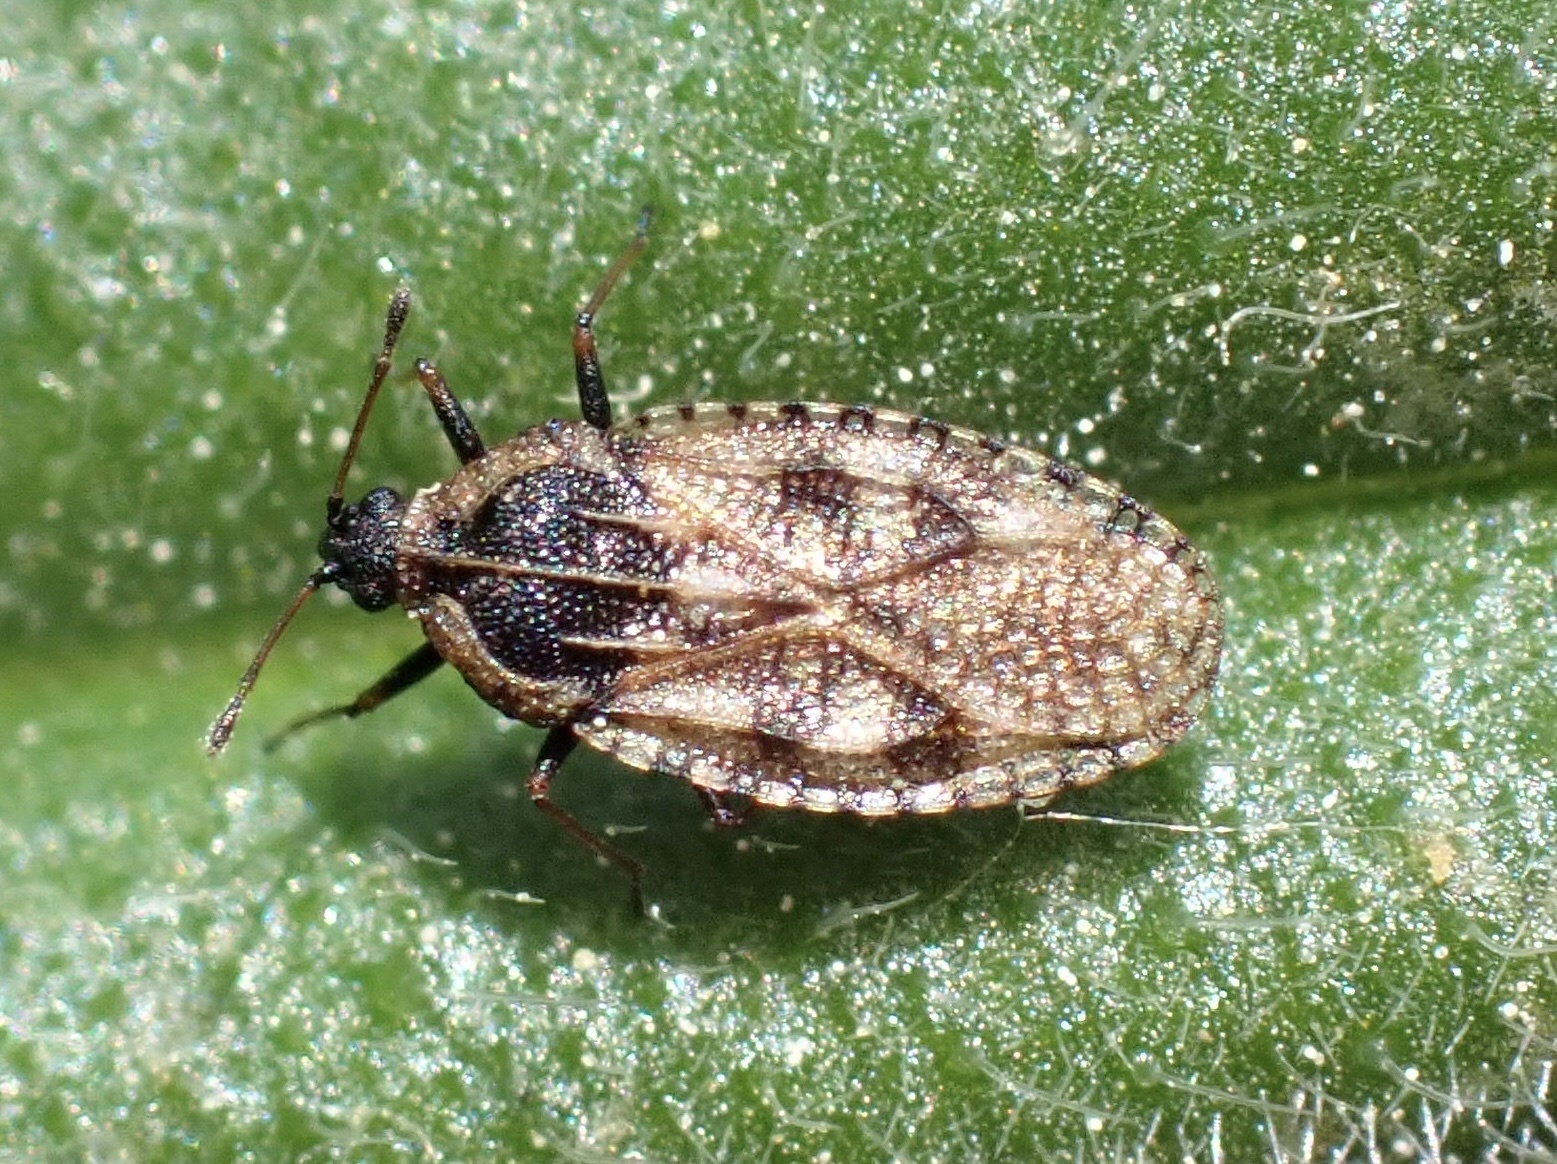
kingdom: Animalia
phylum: Arthropoda
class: Insecta
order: Hemiptera
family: Tingidae
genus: Dictyla
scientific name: Dictyla echii
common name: Lace bug
